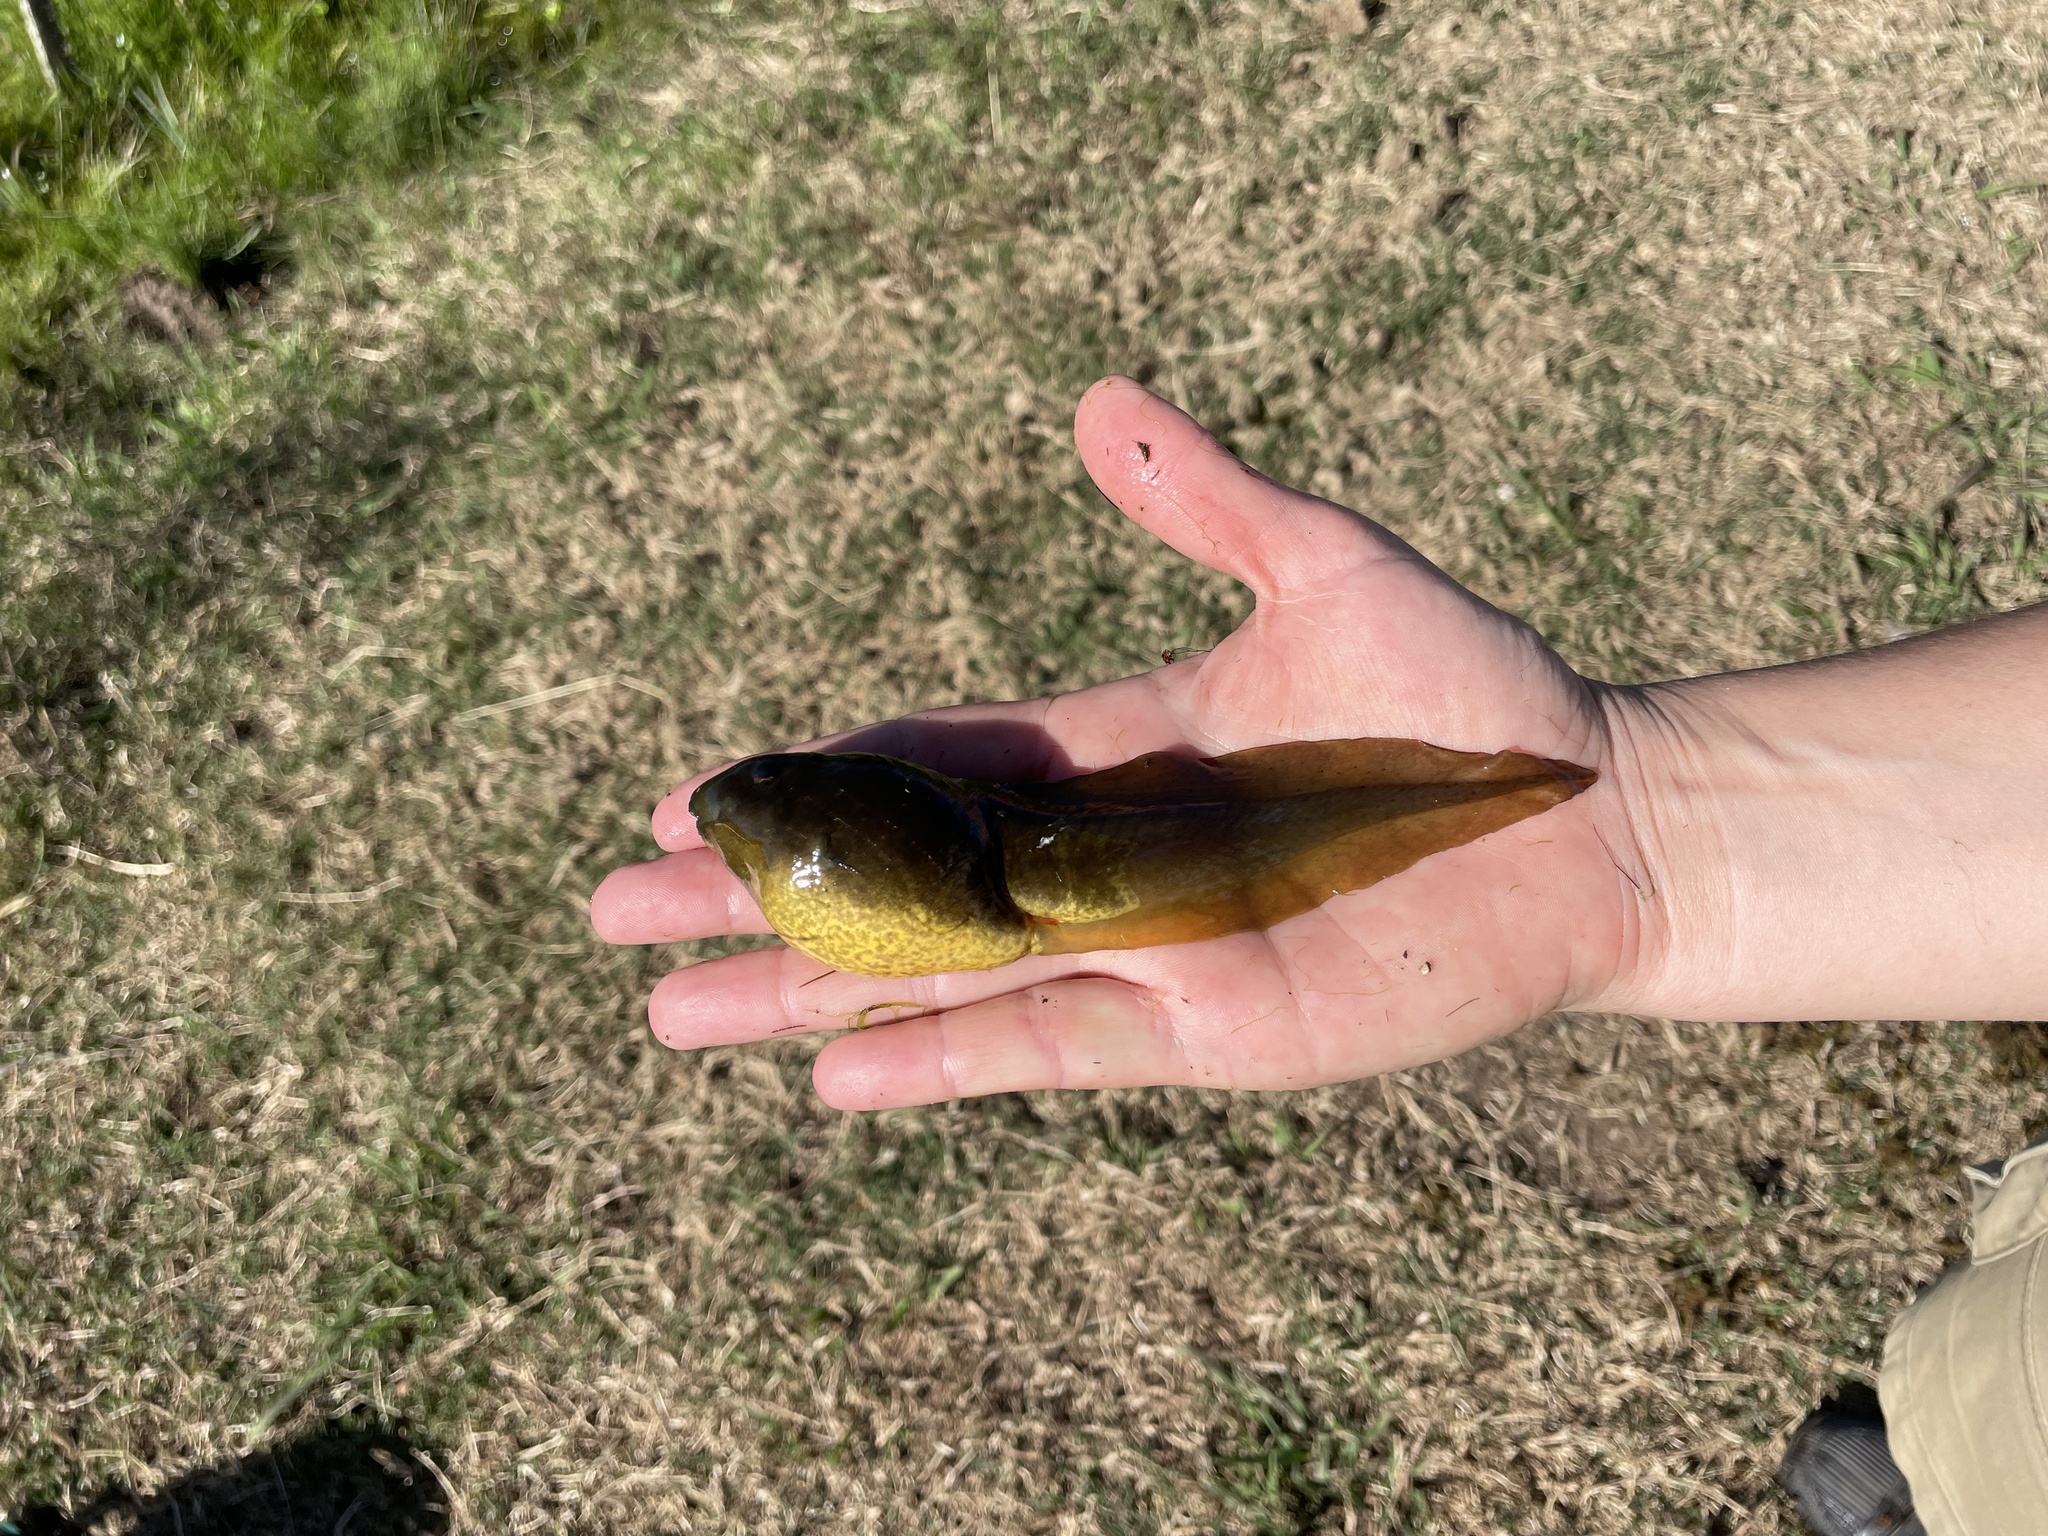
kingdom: Animalia
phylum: Chordata
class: Amphibia
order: Anura
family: Ranidae
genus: Lithobates
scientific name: Lithobates catesbeianus
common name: American bullfrog
